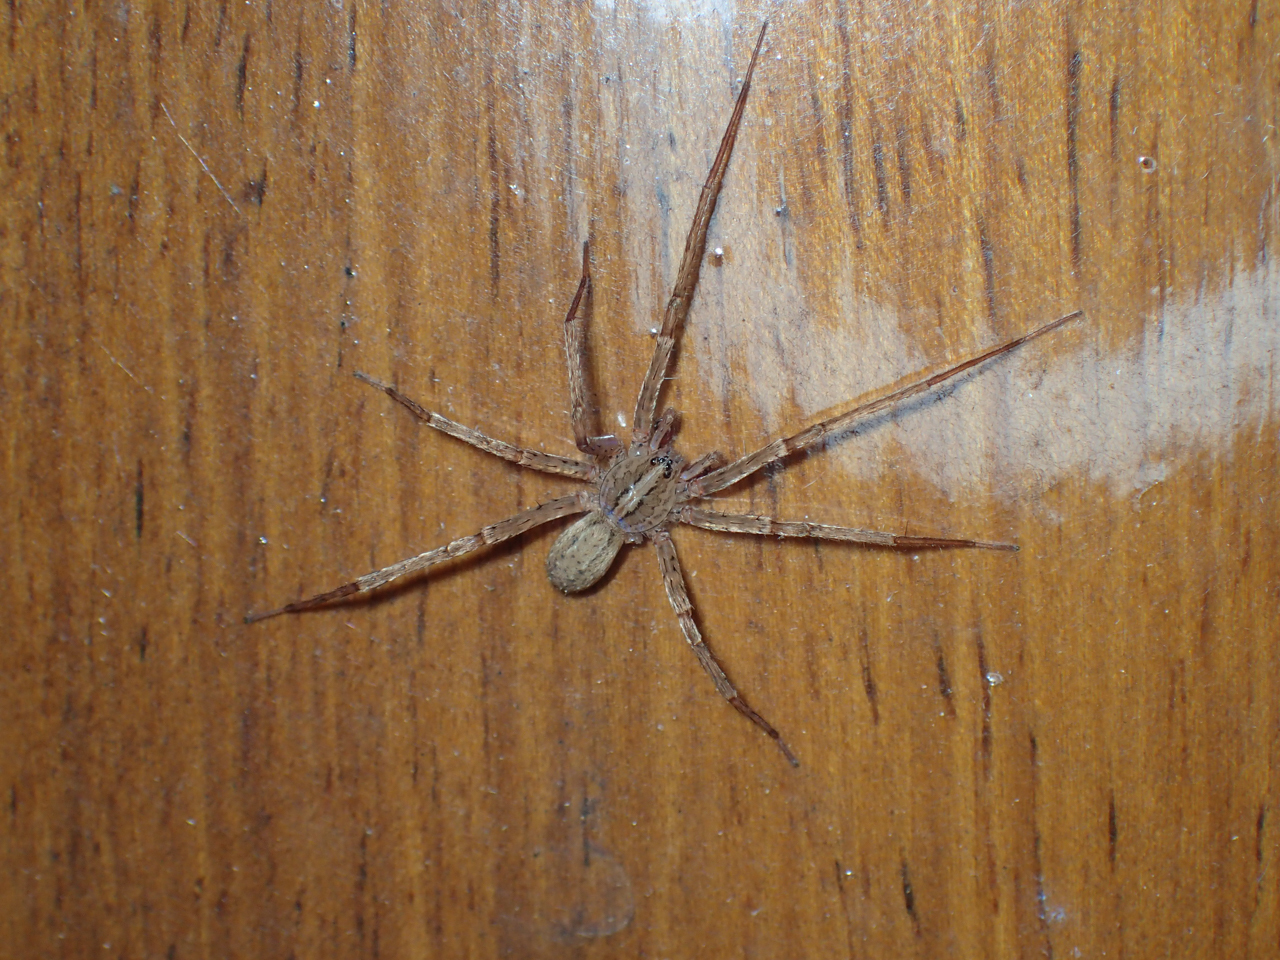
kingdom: Animalia
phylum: Arthropoda
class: Arachnida
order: Araneae
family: Ctenidae
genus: Ctenus
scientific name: Ctenus hibernalis
